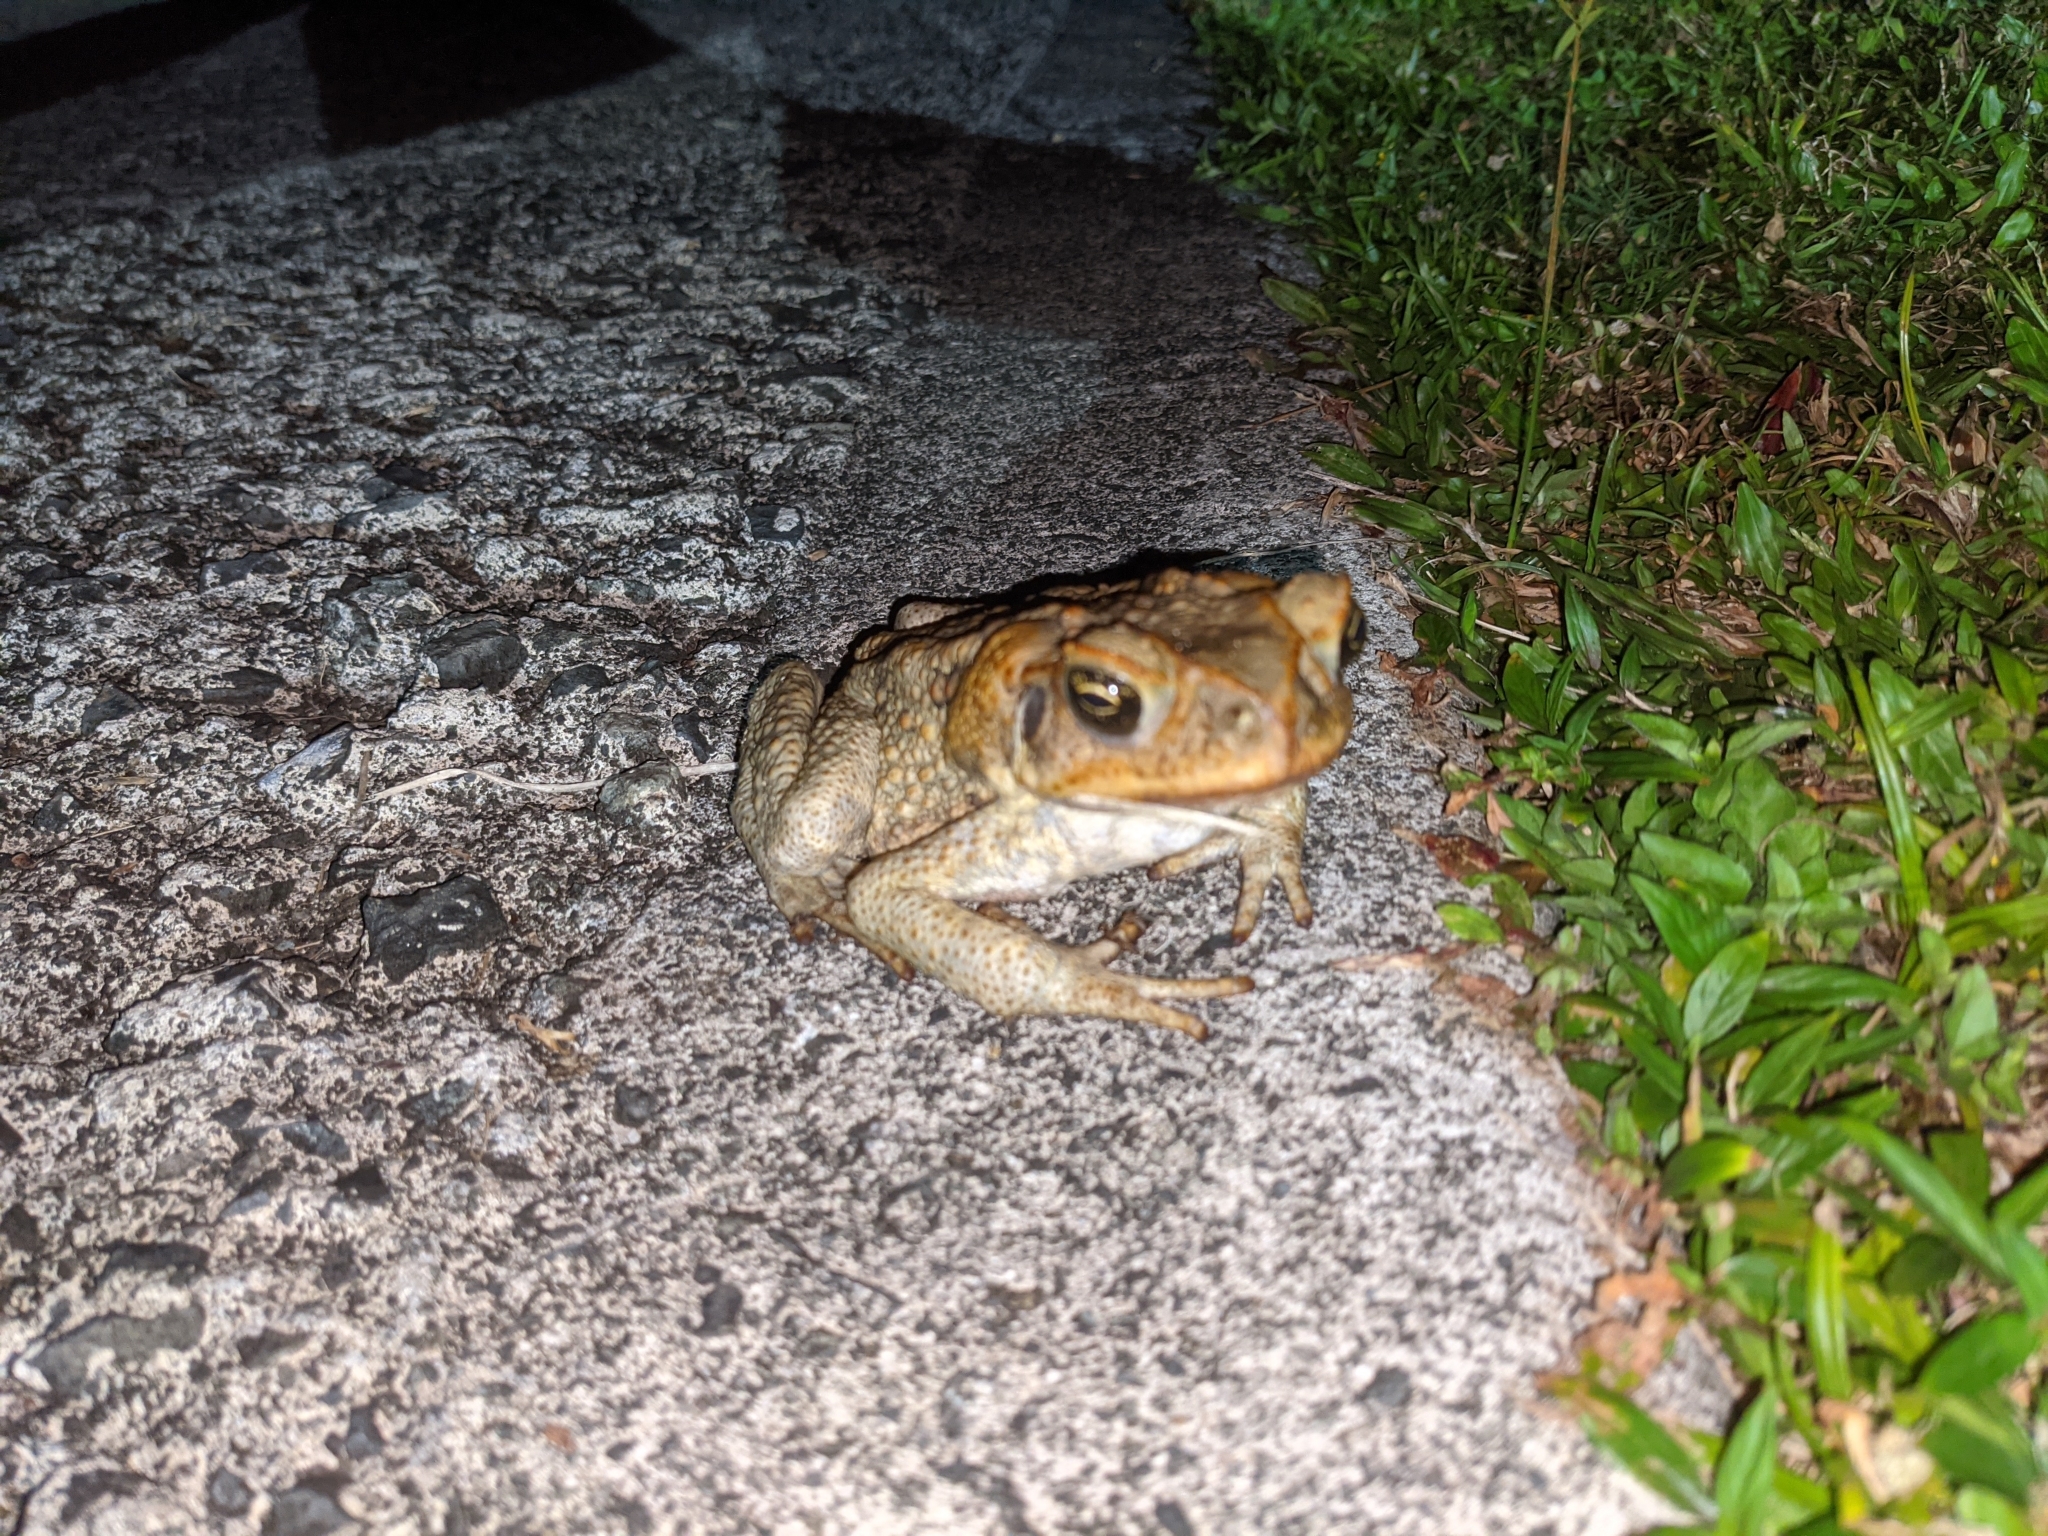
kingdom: Animalia
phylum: Chordata
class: Amphibia
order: Anura
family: Bufonidae
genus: Rhinella
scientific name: Rhinella marina
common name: Cane toad
